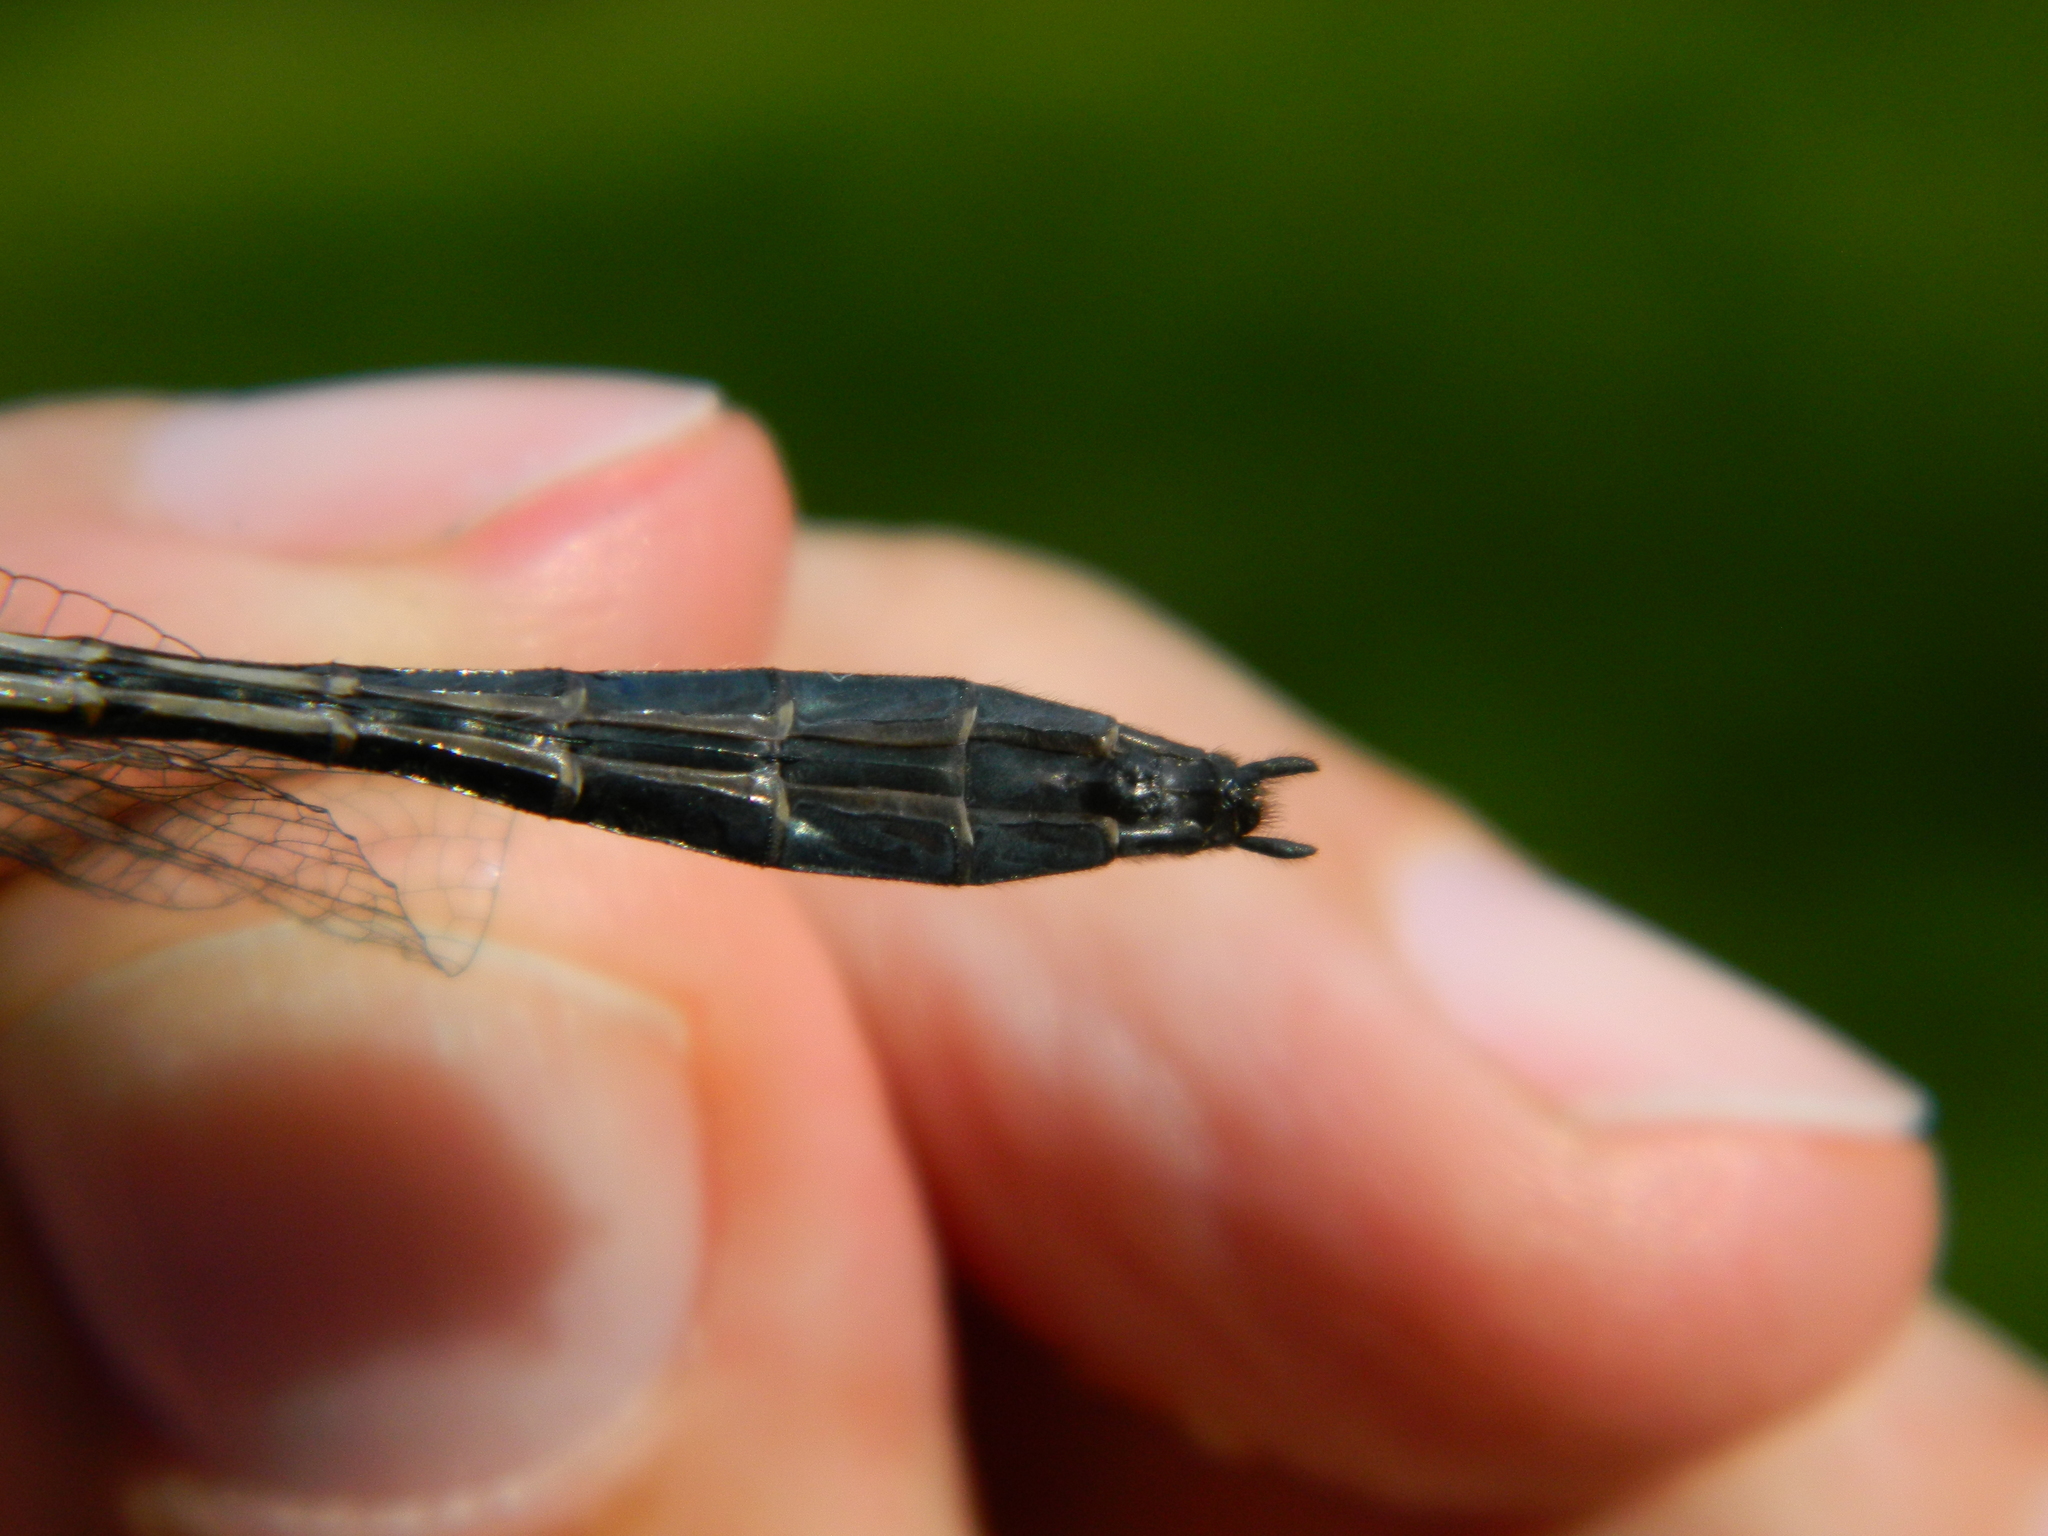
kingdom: Animalia
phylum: Arthropoda
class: Insecta
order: Odonata
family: Corduliidae
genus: Dorocordulia
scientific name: Dorocordulia libera
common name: Racket-tailed emerald
